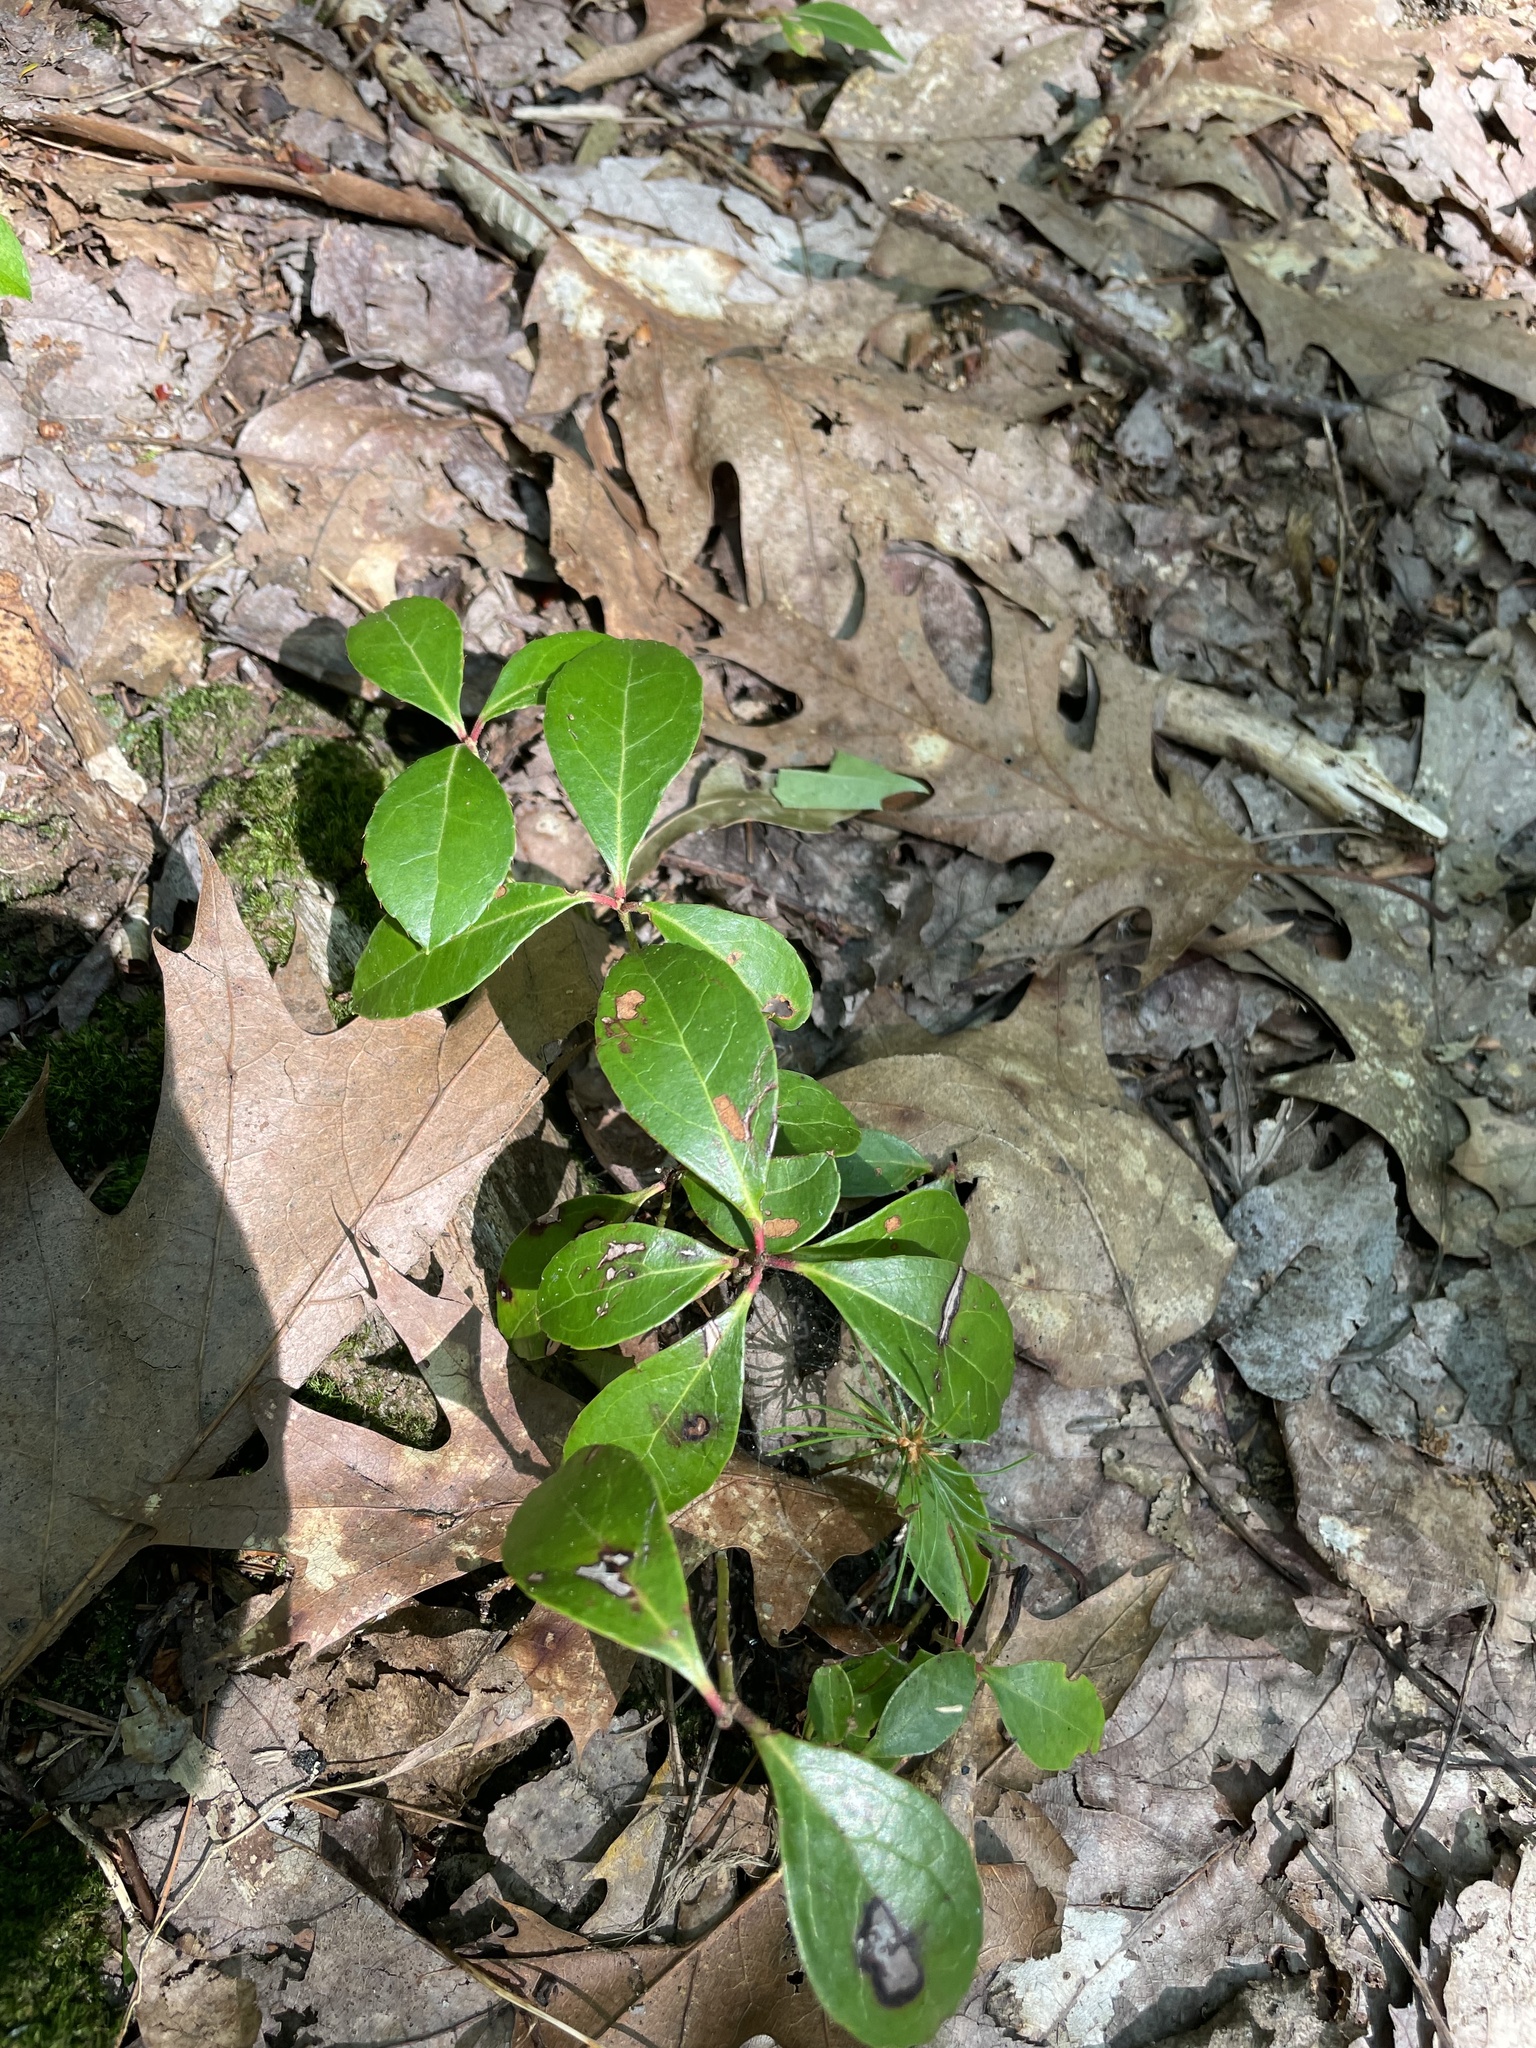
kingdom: Plantae
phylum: Tracheophyta
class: Magnoliopsida
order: Ericales
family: Ericaceae
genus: Gaultheria
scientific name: Gaultheria procumbens
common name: Checkerberry
